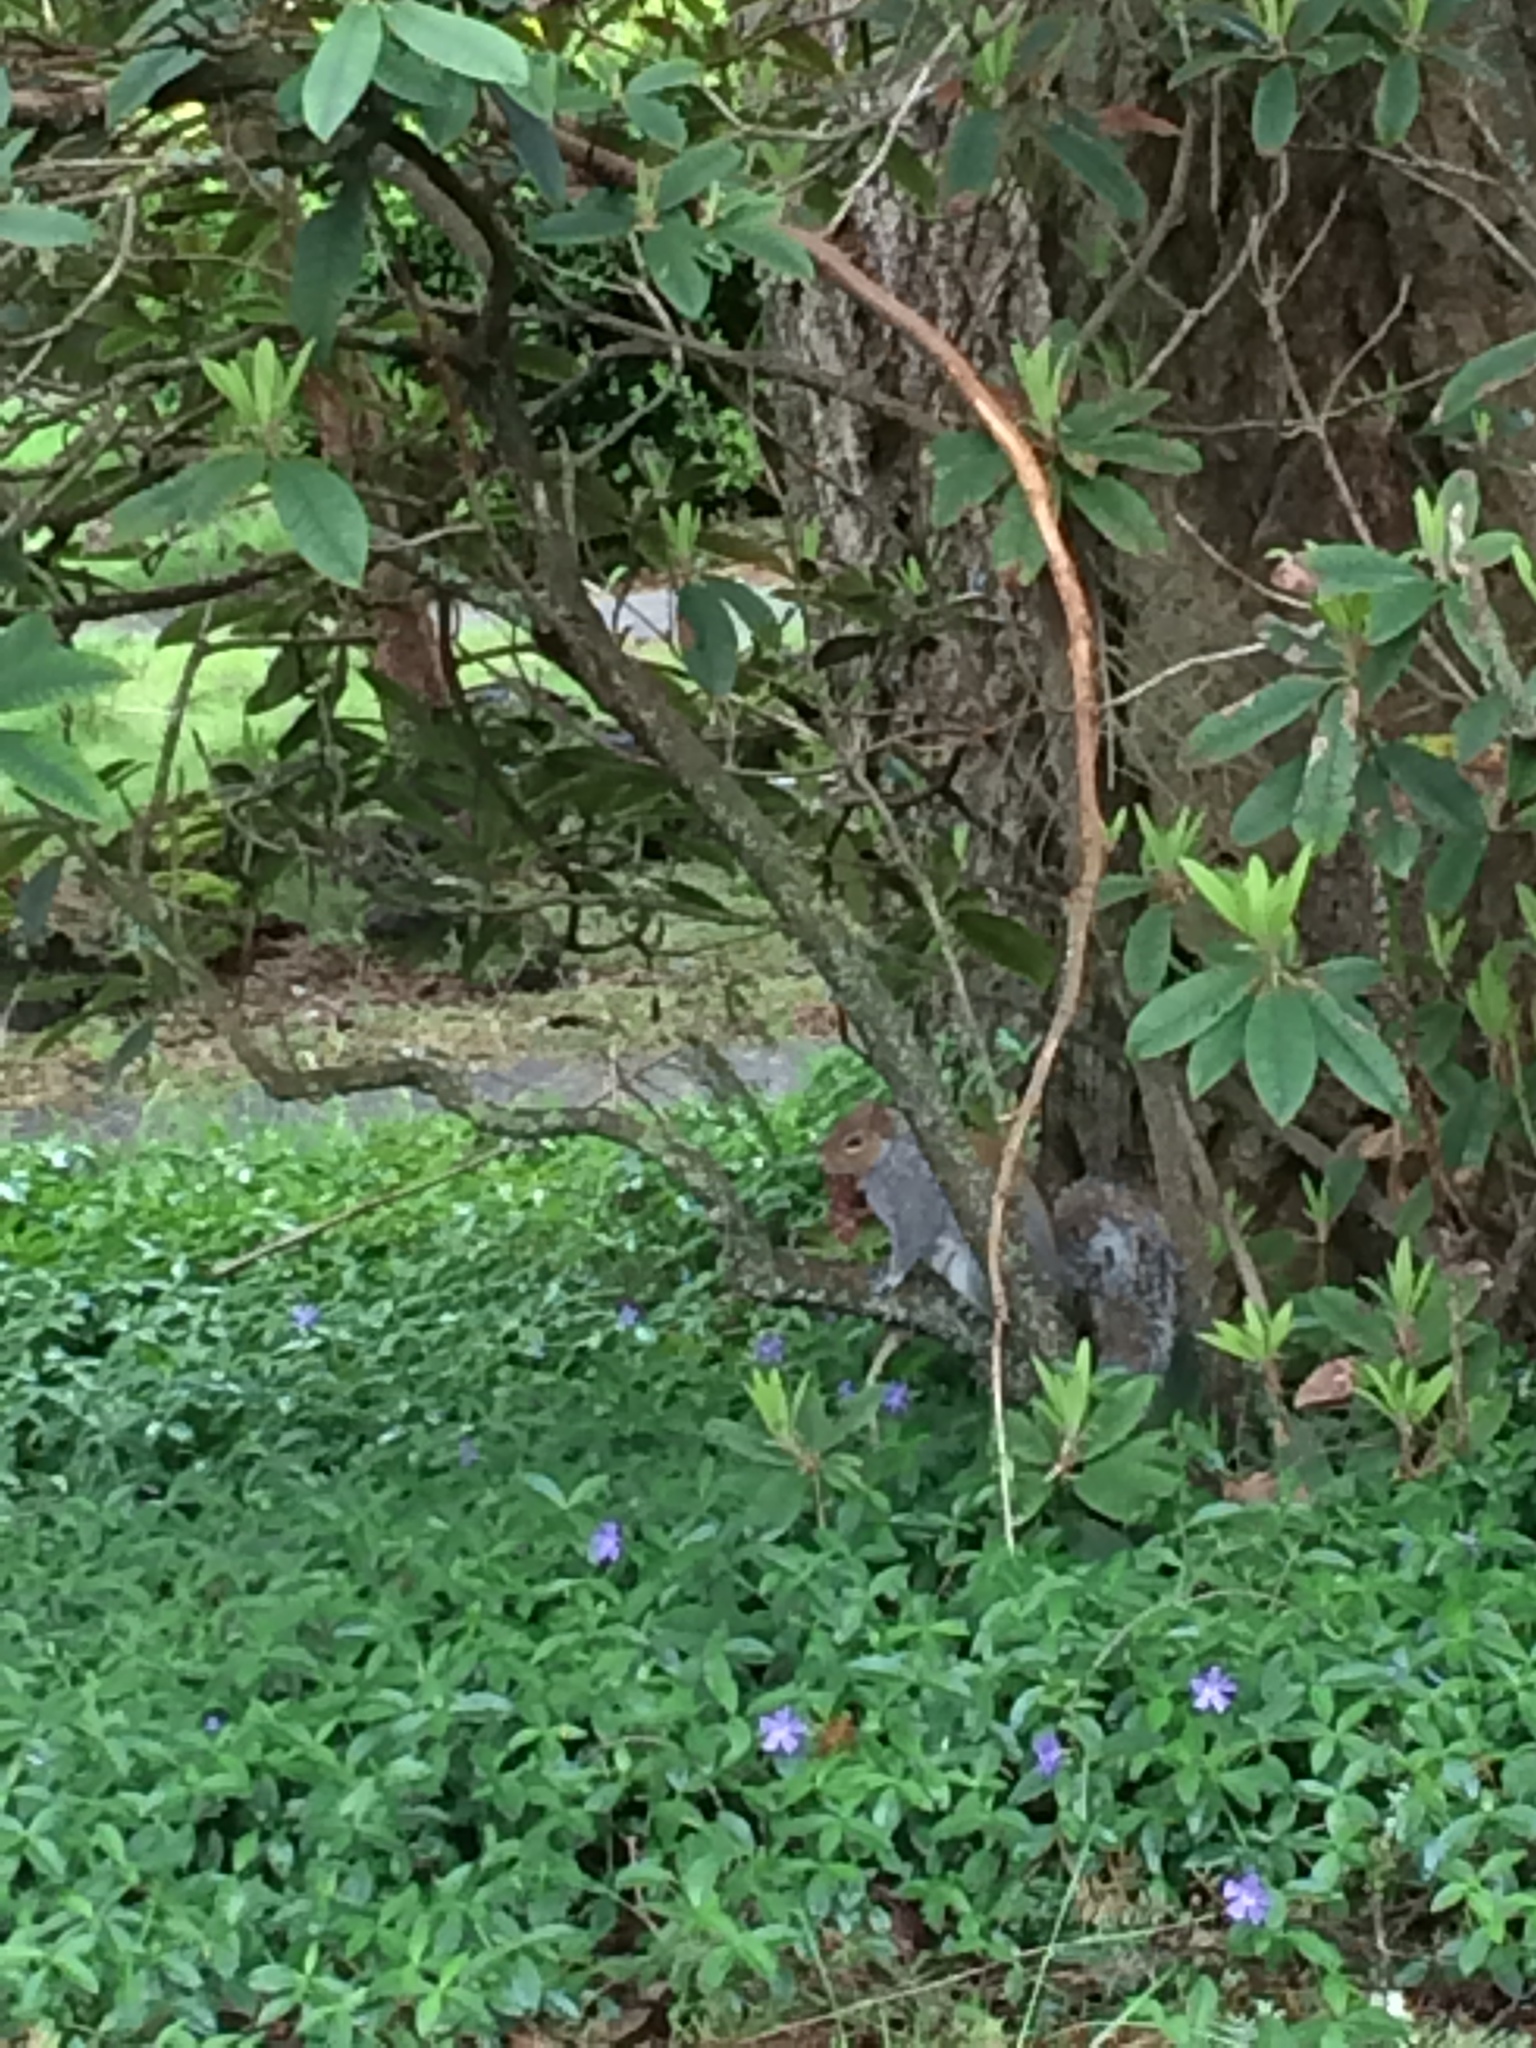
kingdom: Animalia
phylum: Chordata
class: Mammalia
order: Rodentia
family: Sciuridae
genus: Sciurus
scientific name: Sciurus carolinensis
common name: Eastern gray squirrel
